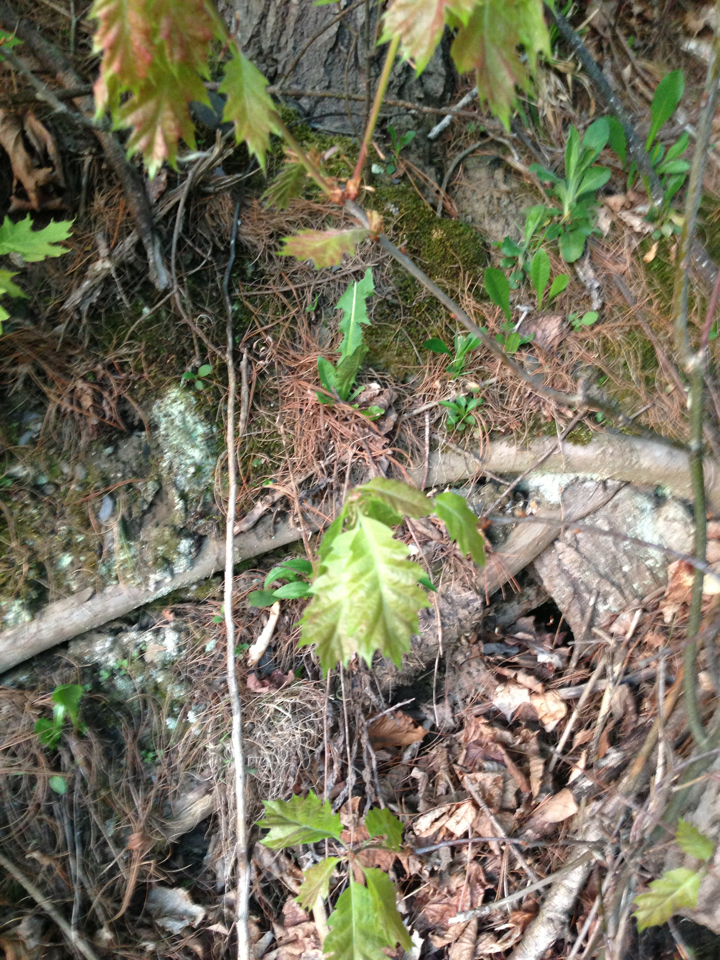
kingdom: Plantae
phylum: Tracheophyta
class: Magnoliopsida
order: Fagales
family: Fagaceae
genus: Quercus
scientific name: Quercus rubra
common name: Red oak
